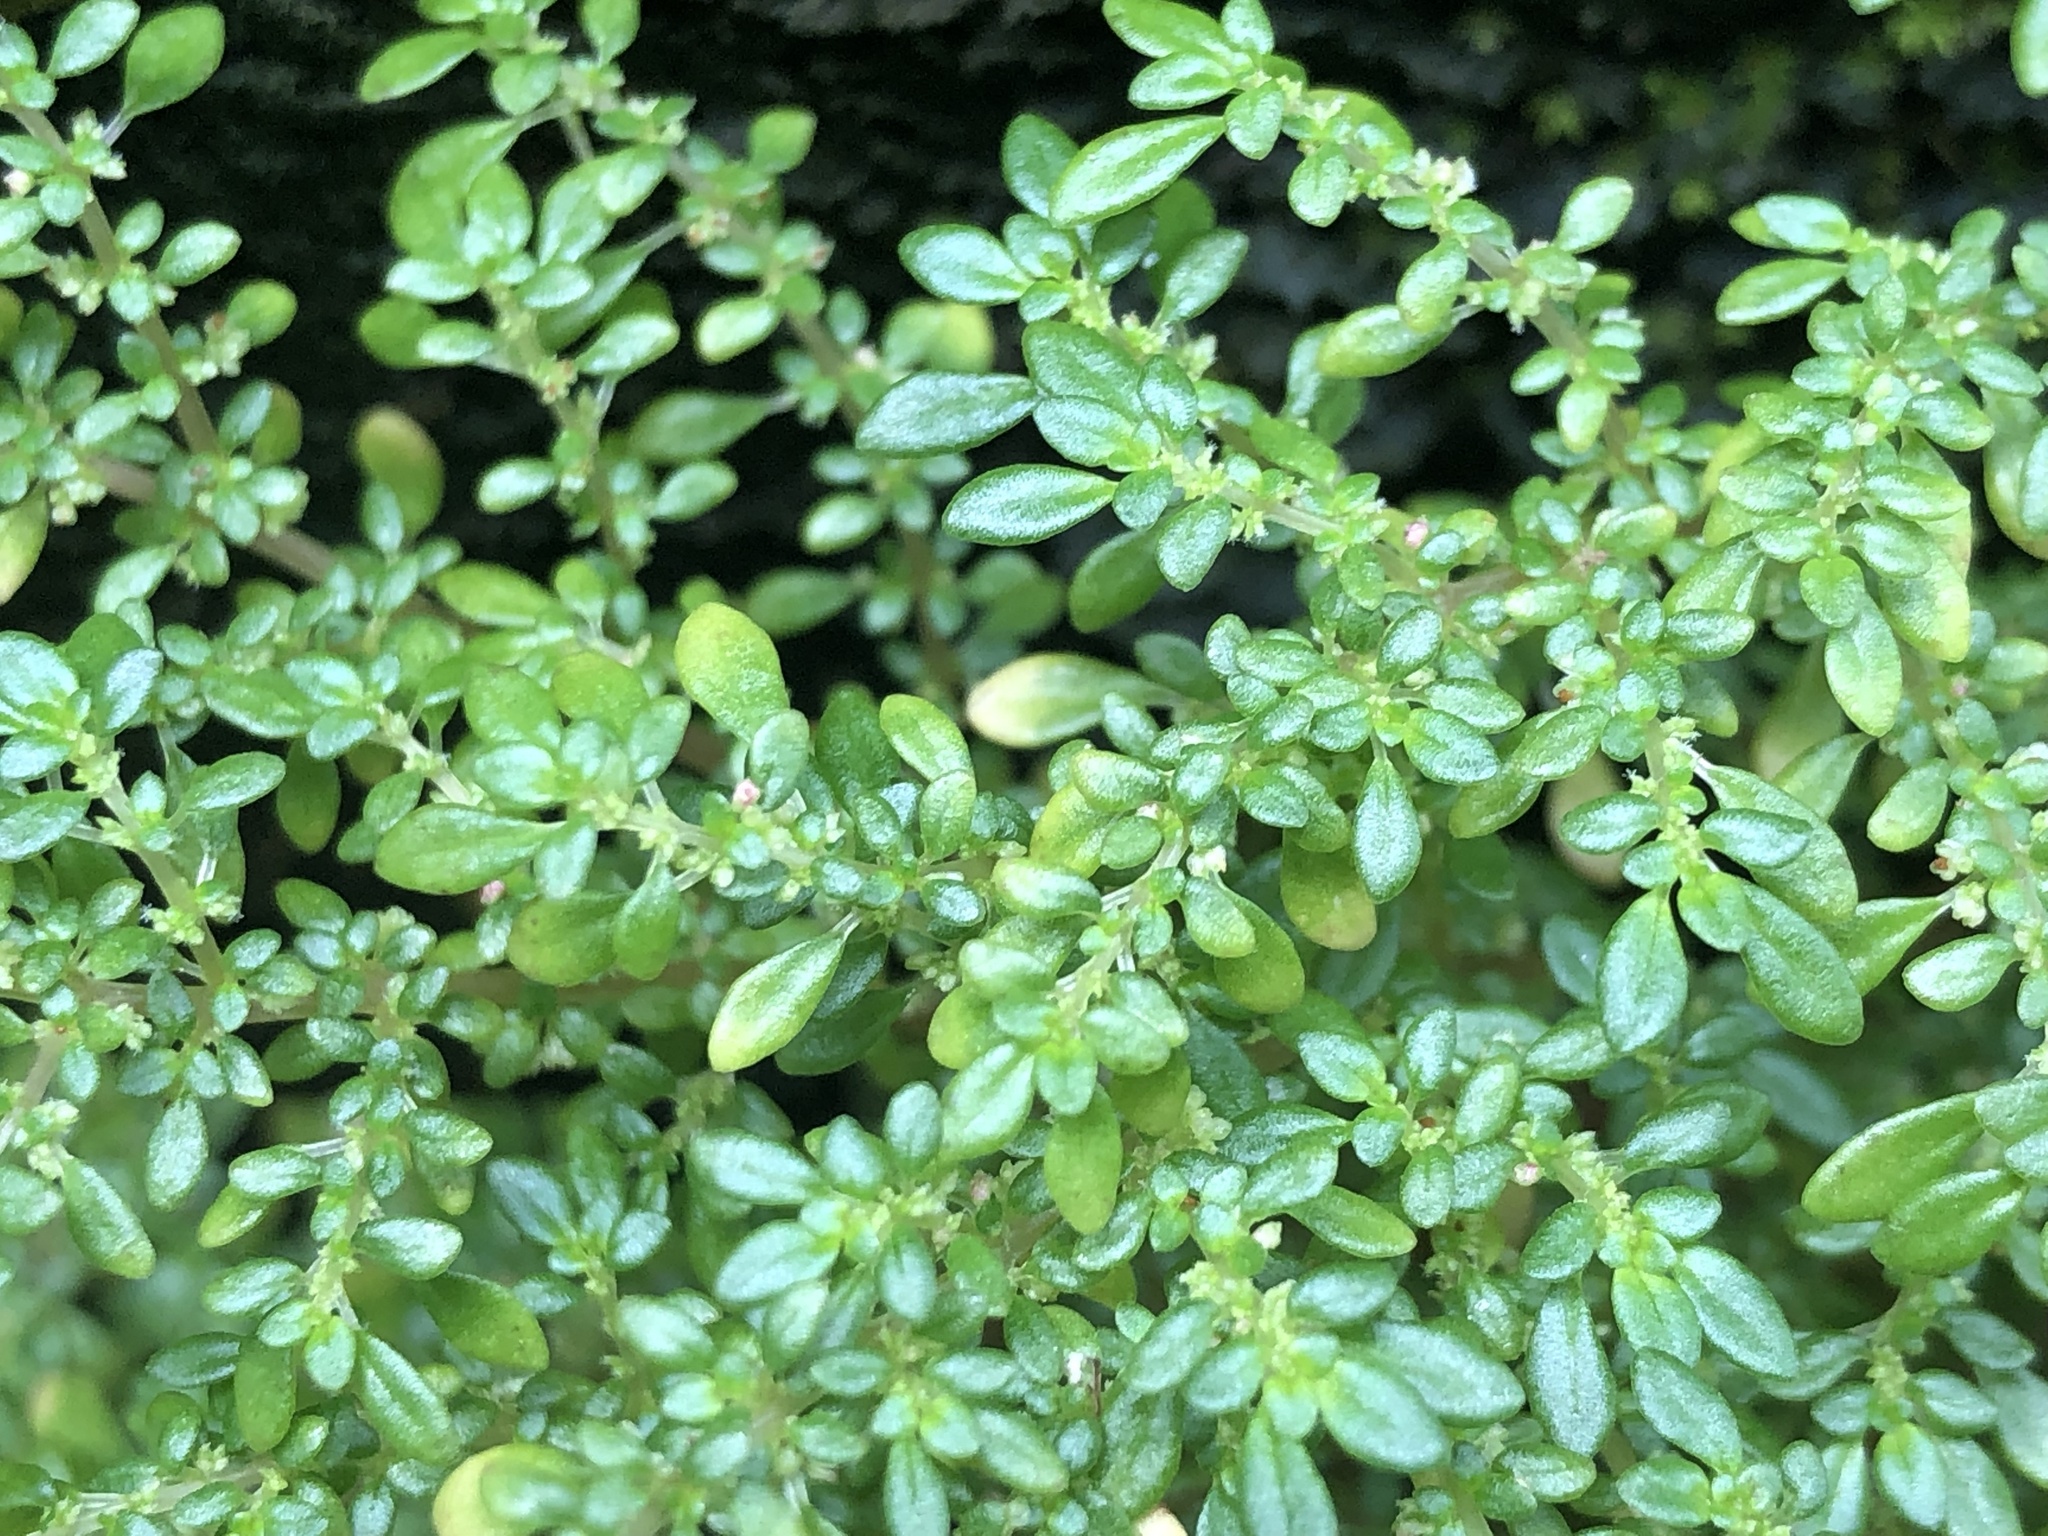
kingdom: Plantae
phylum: Tracheophyta
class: Magnoliopsida
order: Rosales
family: Urticaceae
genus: Pilea
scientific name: Pilea microphylla
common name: Artillery-plant
